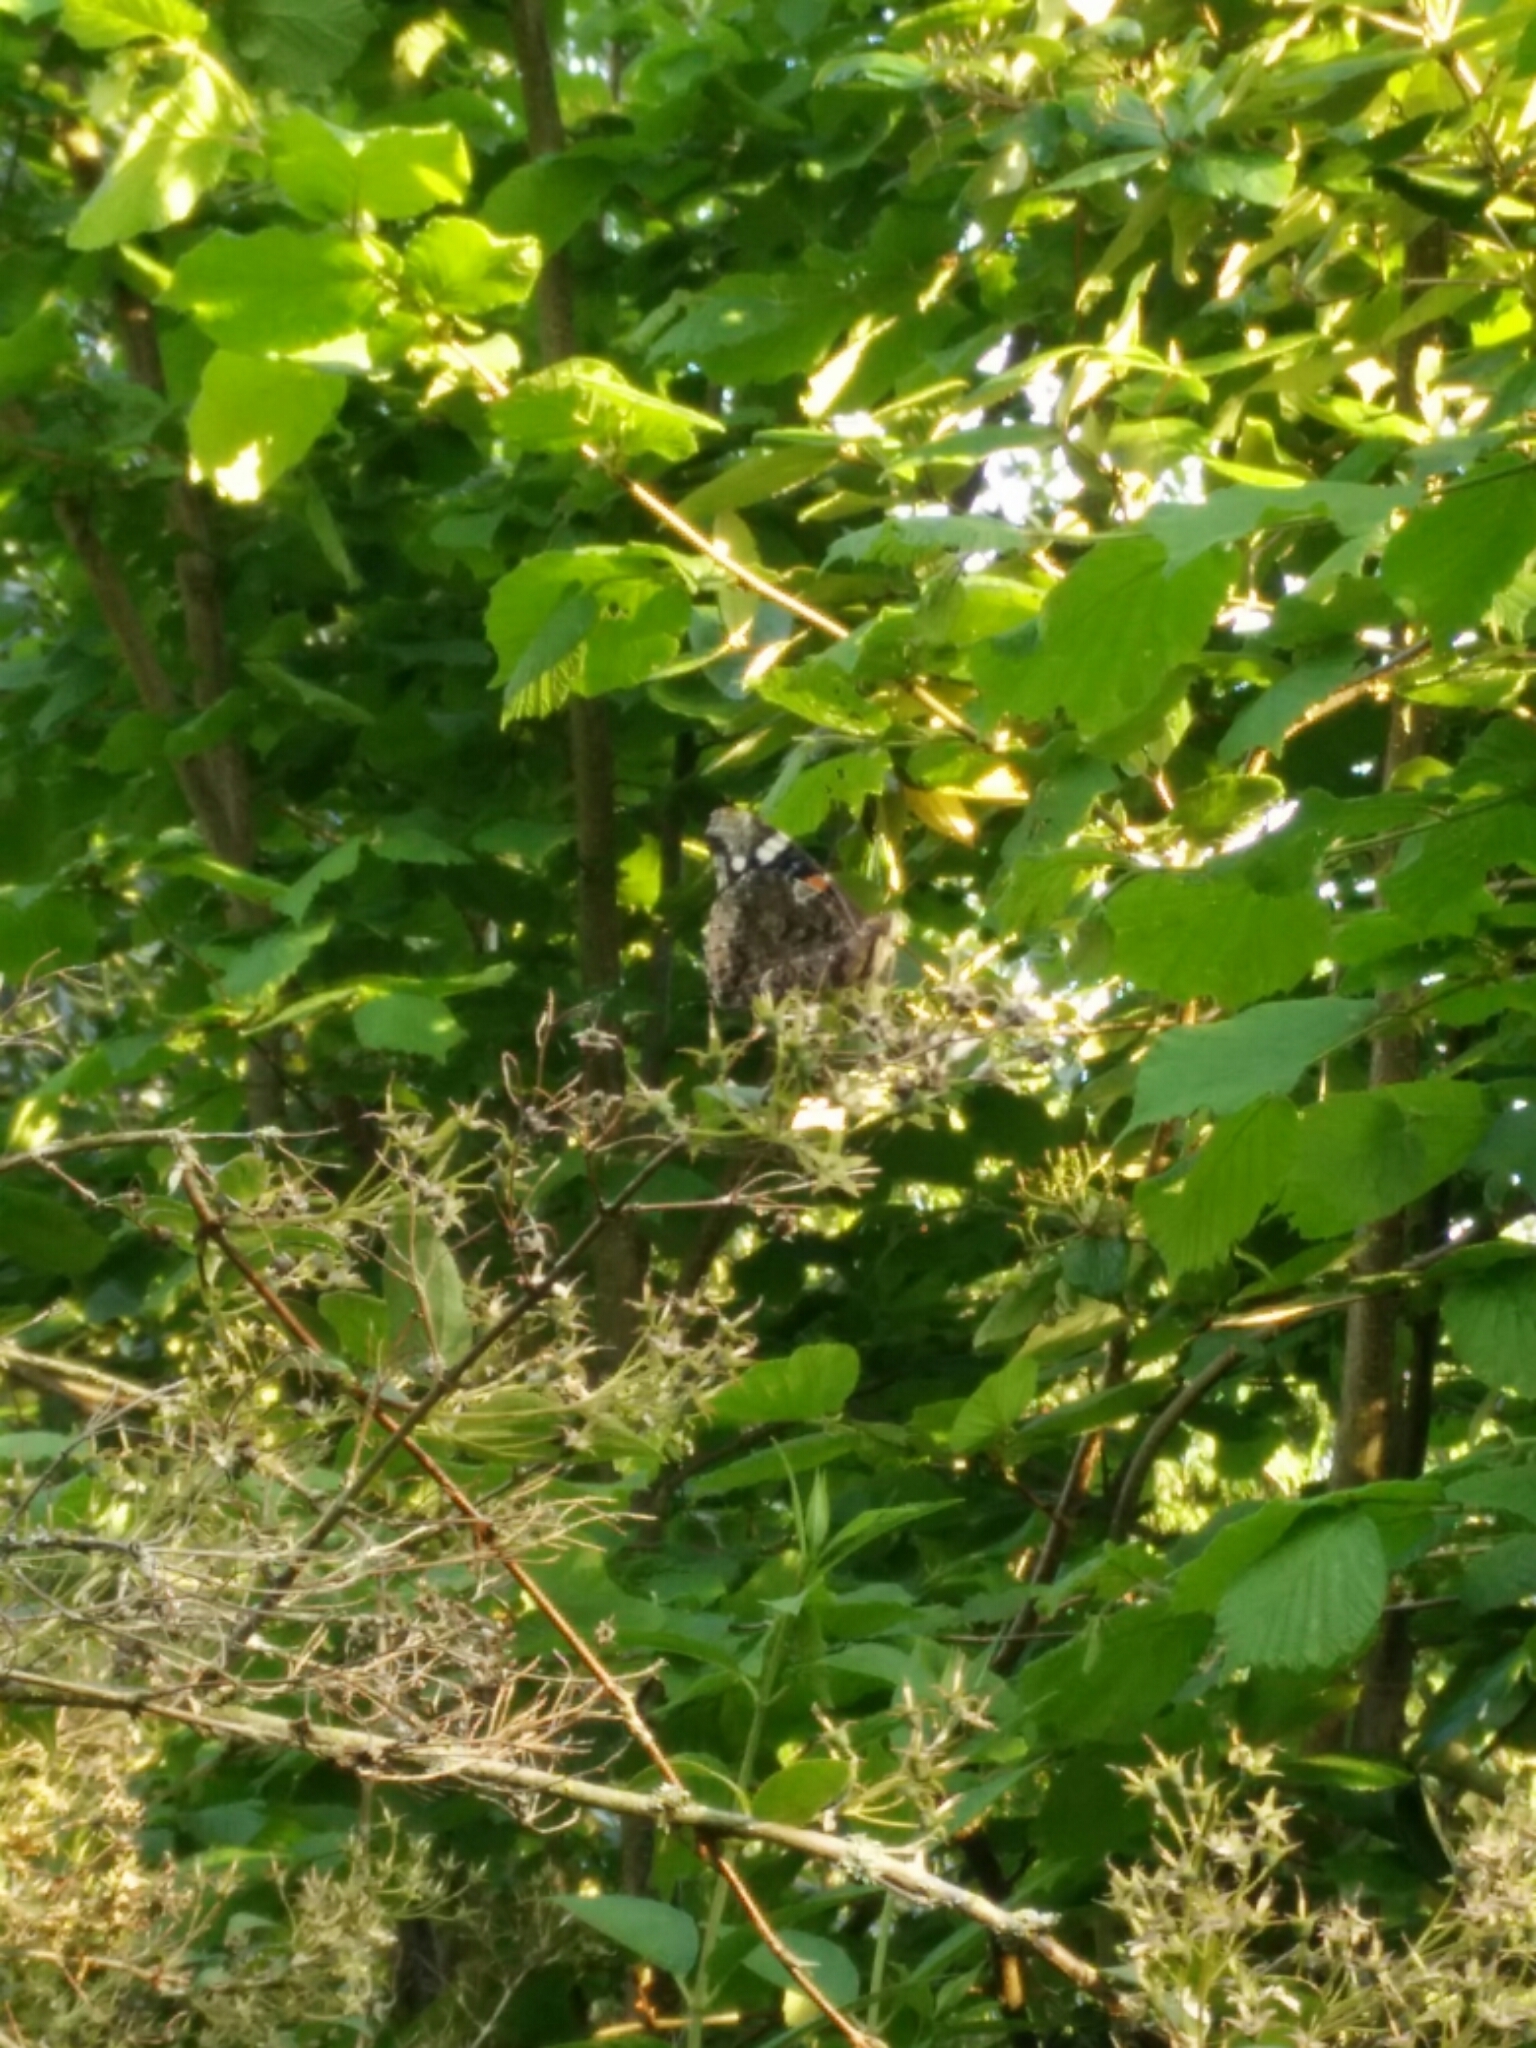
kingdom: Animalia
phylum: Arthropoda
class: Insecta
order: Lepidoptera
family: Nymphalidae
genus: Vanessa
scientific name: Vanessa atalanta
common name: Red admiral
